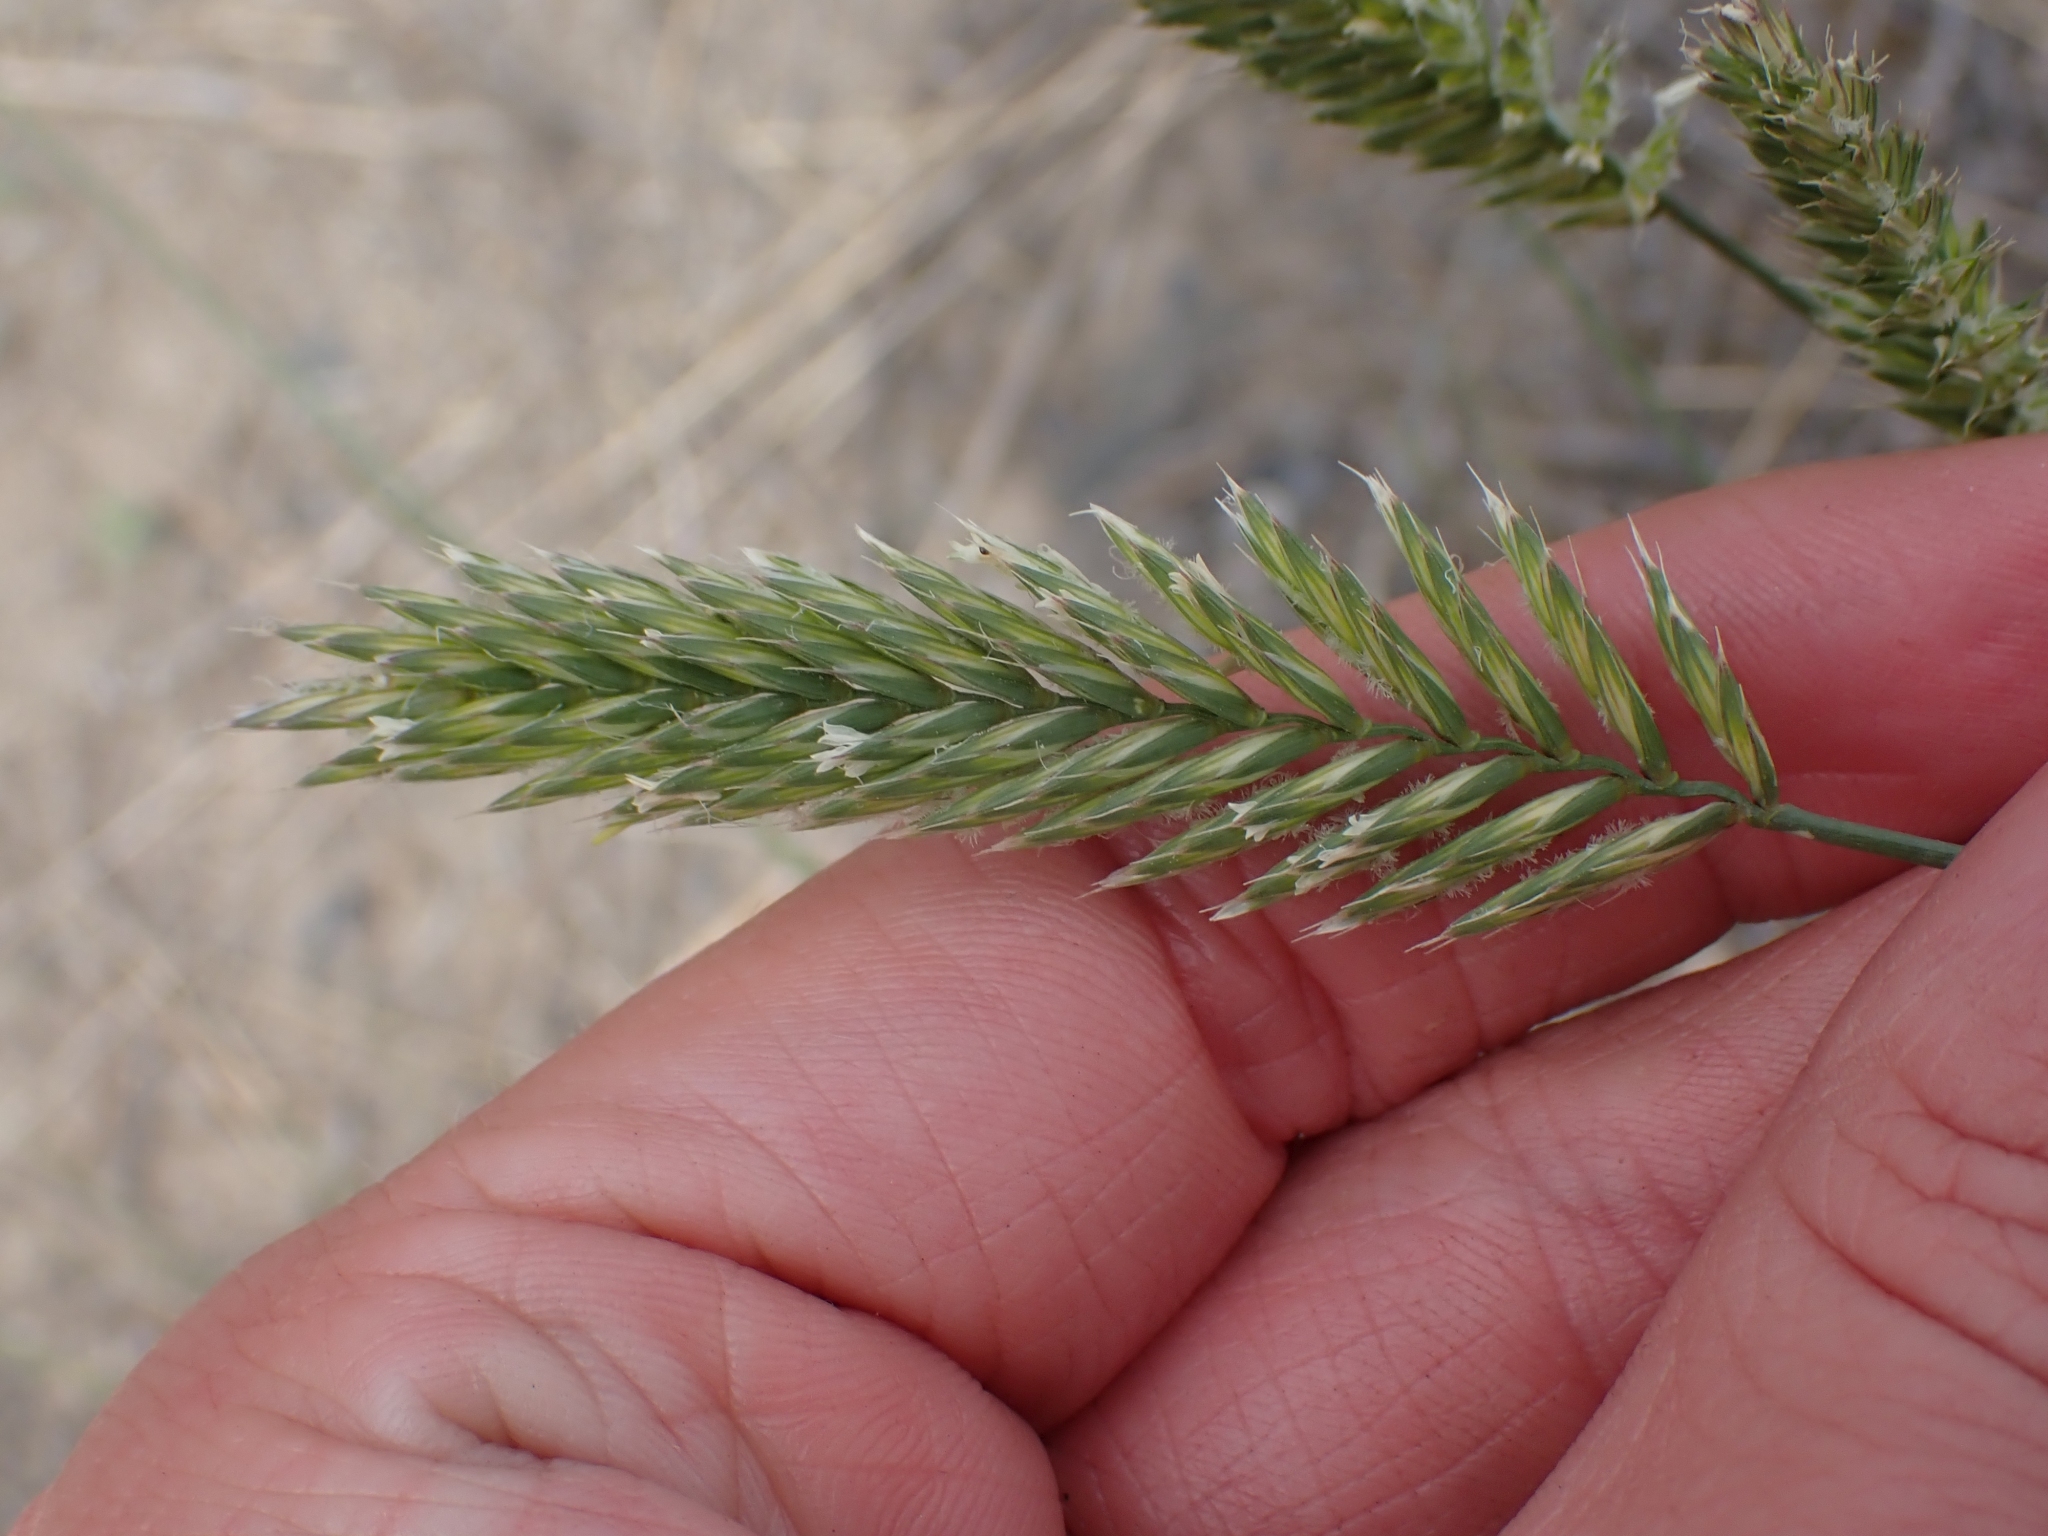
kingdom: Plantae
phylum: Tracheophyta
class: Liliopsida
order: Poales
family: Poaceae
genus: Agropyron
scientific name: Agropyron cristatum
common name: Crested wheatgrass
